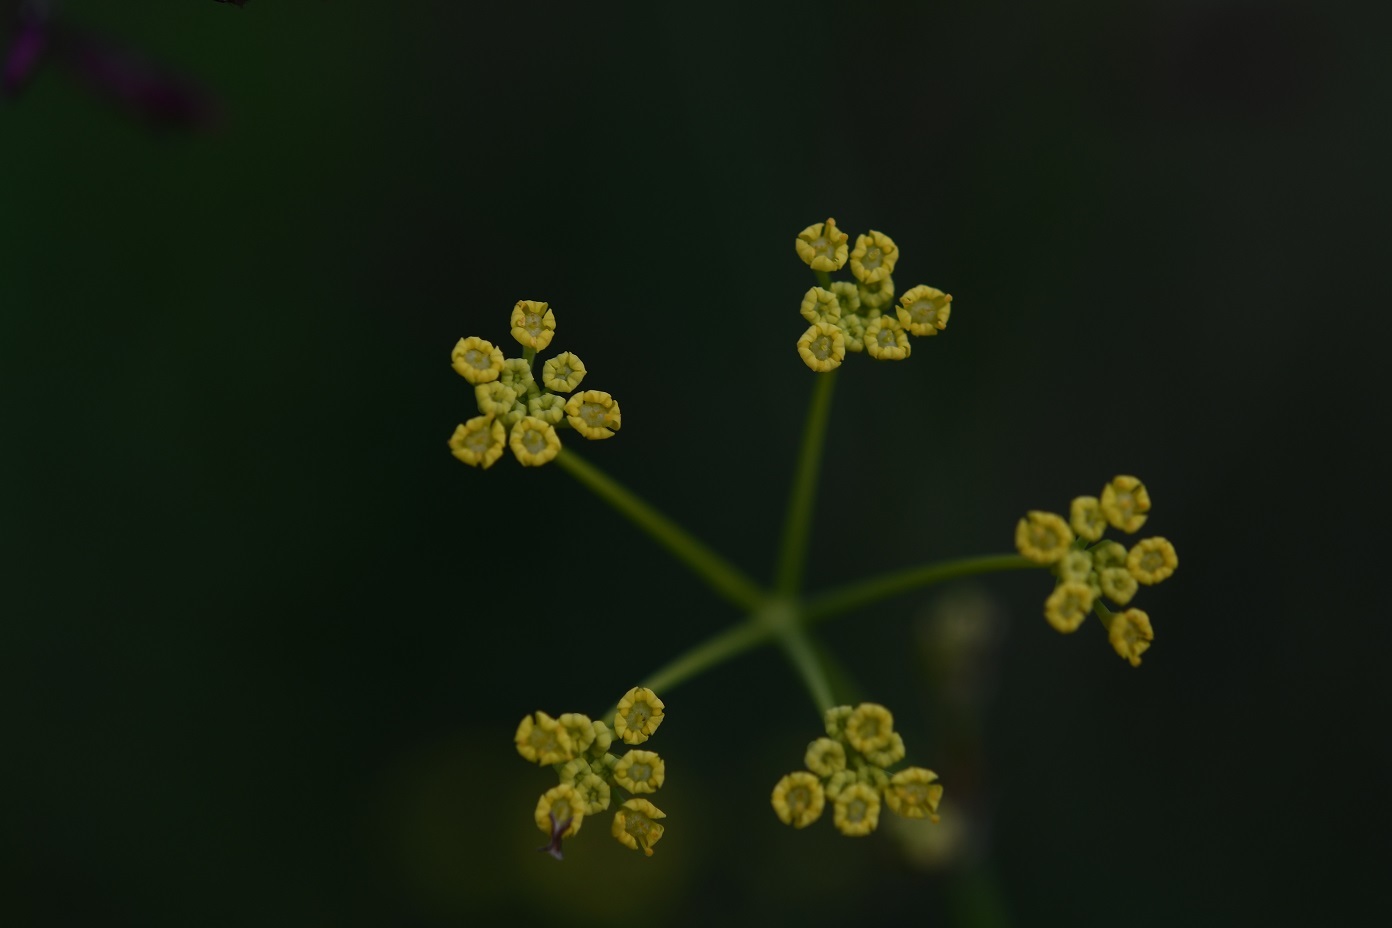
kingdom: Plantae
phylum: Tracheophyta
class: Magnoliopsida
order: Apiales
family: Apiaceae
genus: Donnellsmithia
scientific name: Donnellsmithia juncea
